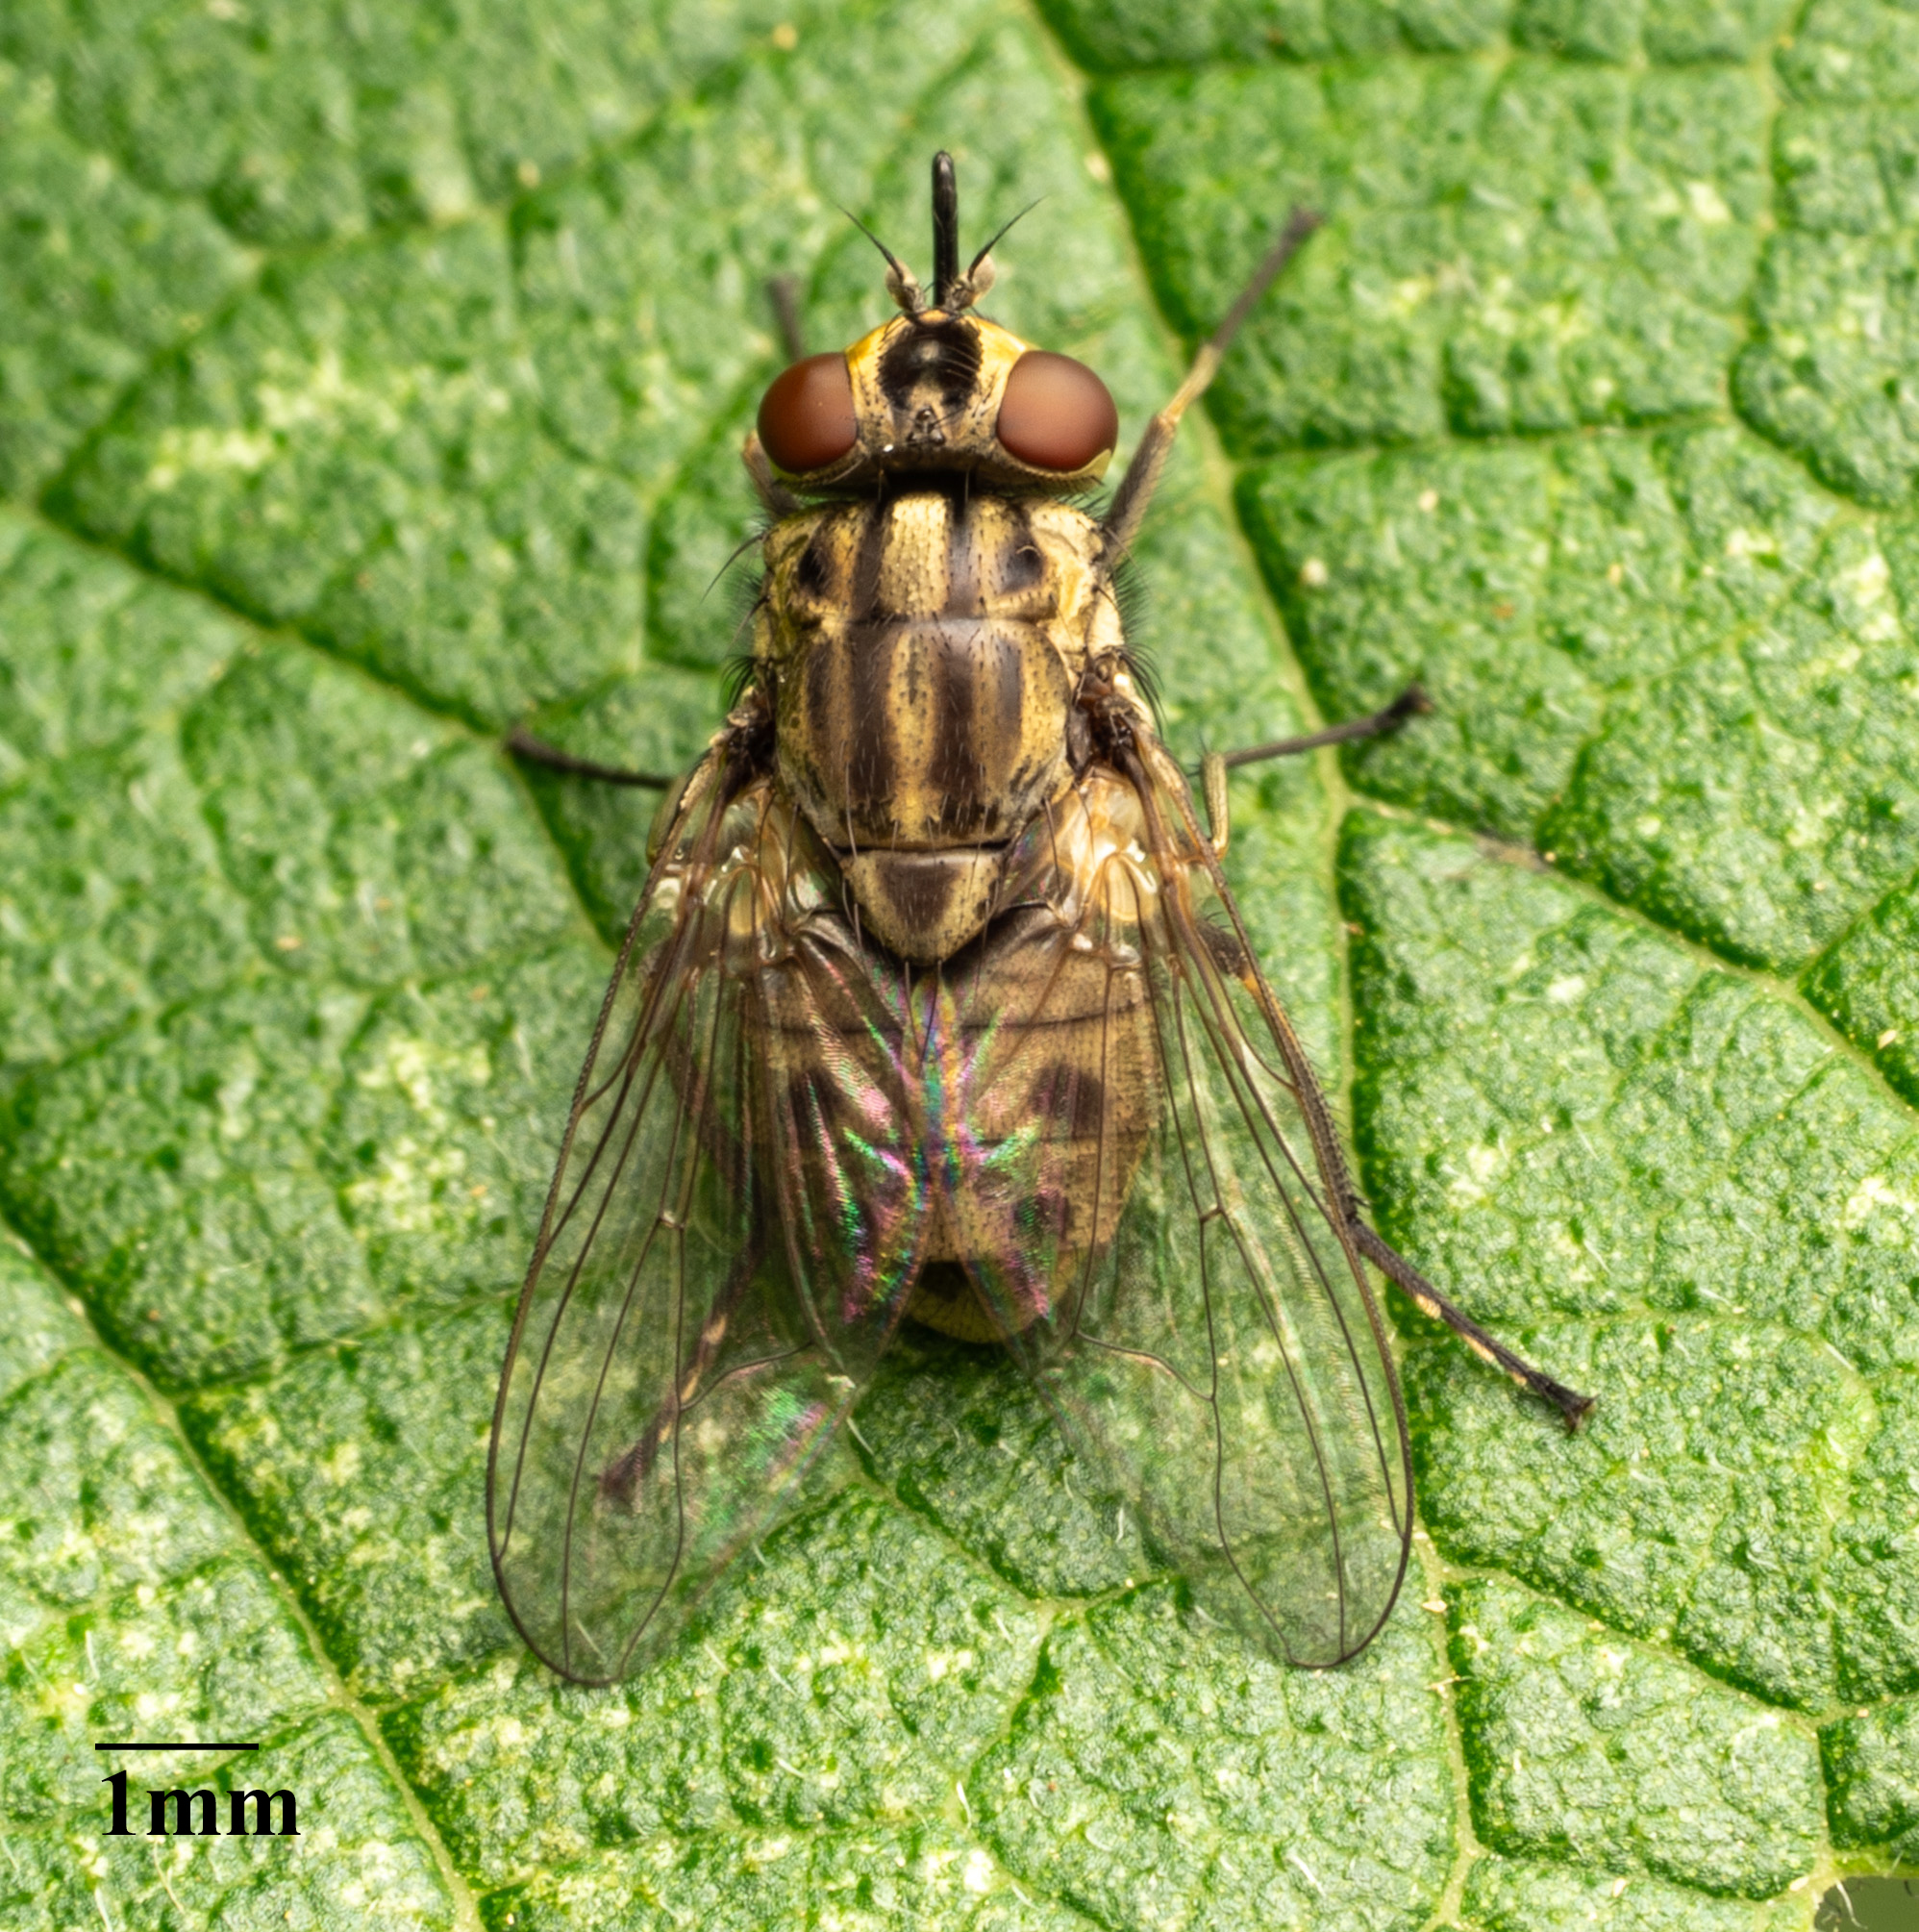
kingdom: Animalia
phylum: Arthropoda
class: Insecta
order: Diptera
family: Muscidae
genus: Stomoxys
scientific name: Stomoxys calcitrans
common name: Stable fly
